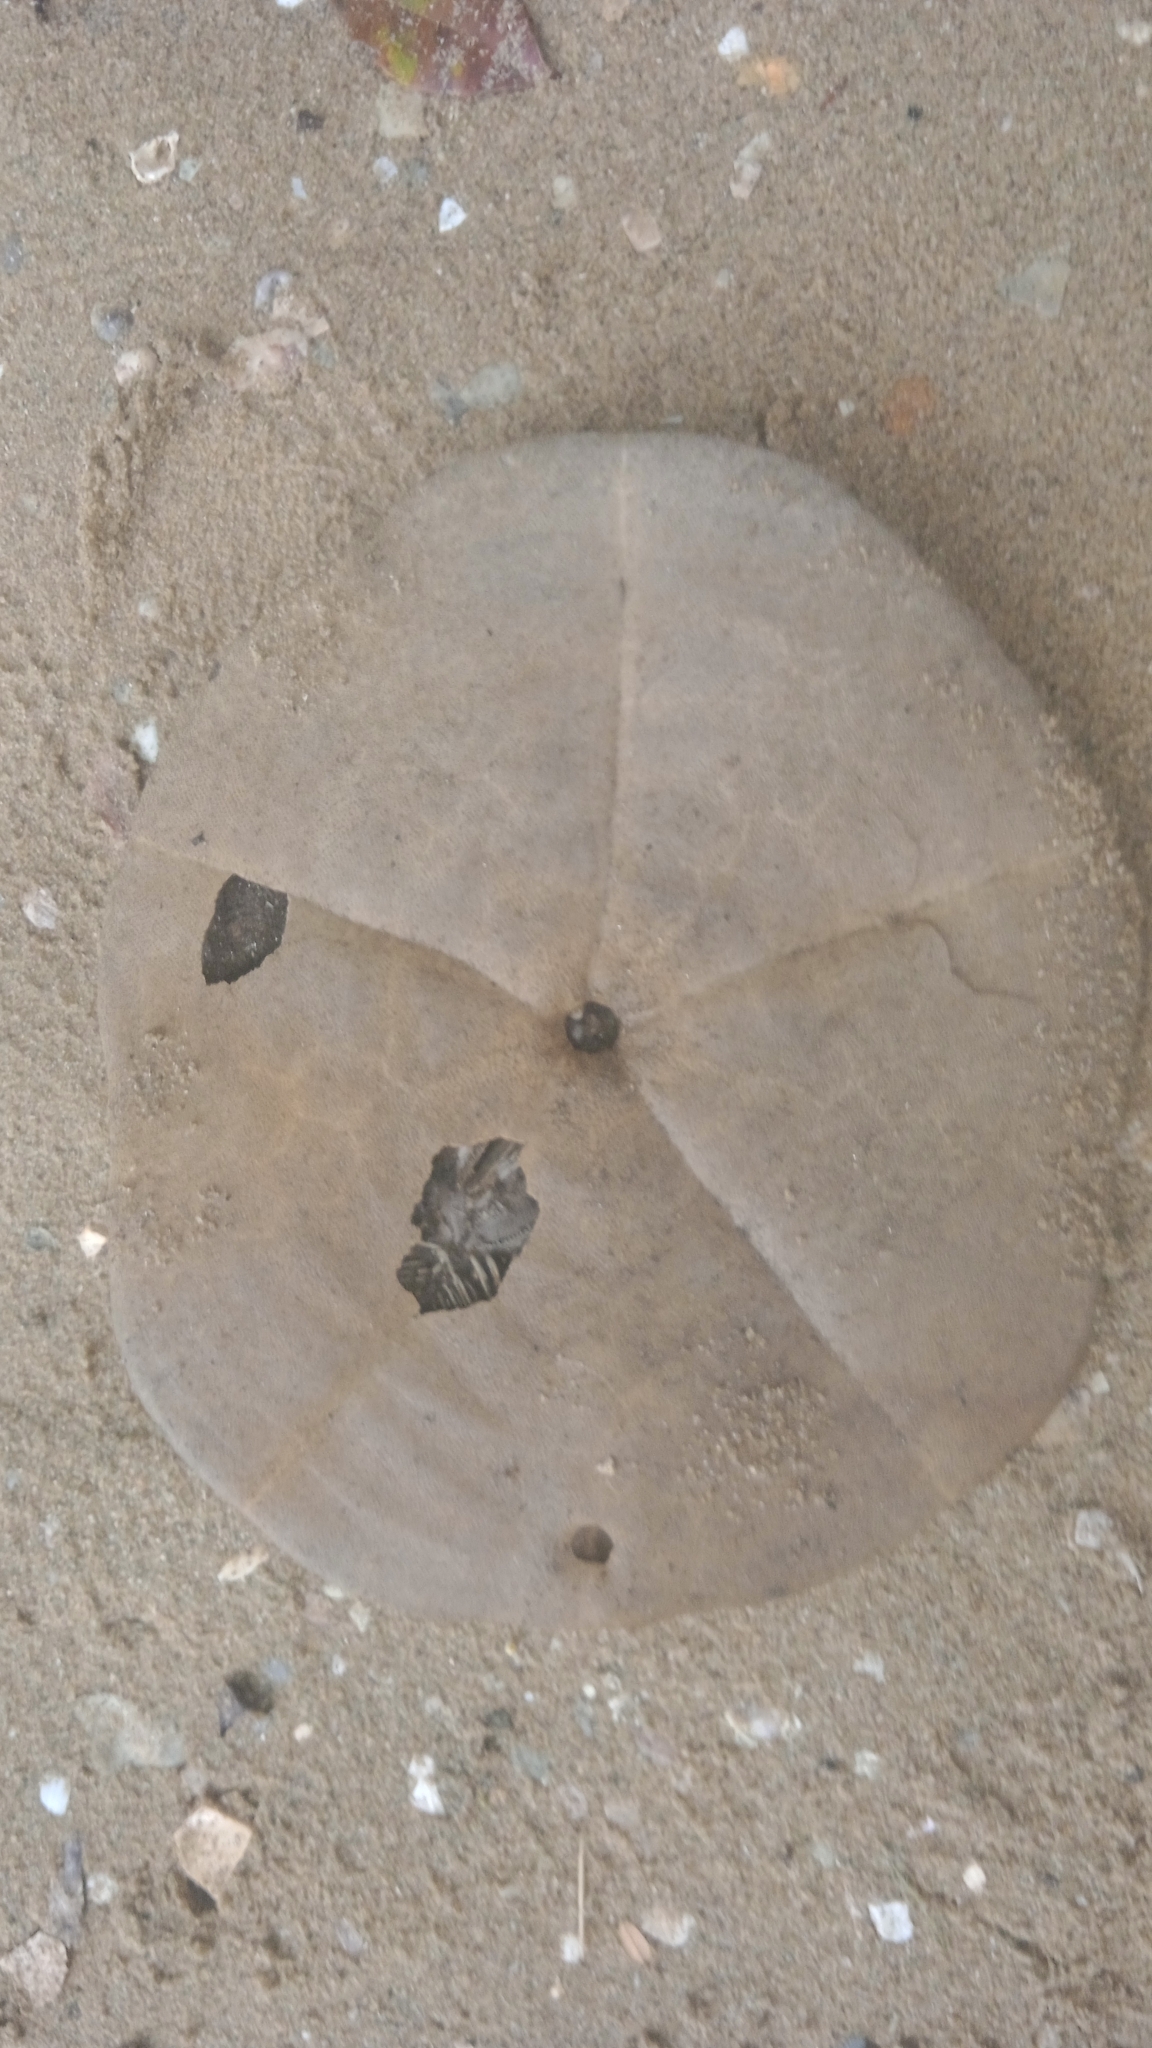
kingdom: Animalia
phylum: Echinodermata
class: Echinoidea
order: Clypeasteroida
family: Clypeasteridae
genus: Clypeaster
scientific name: Clypeaster subdepressus
